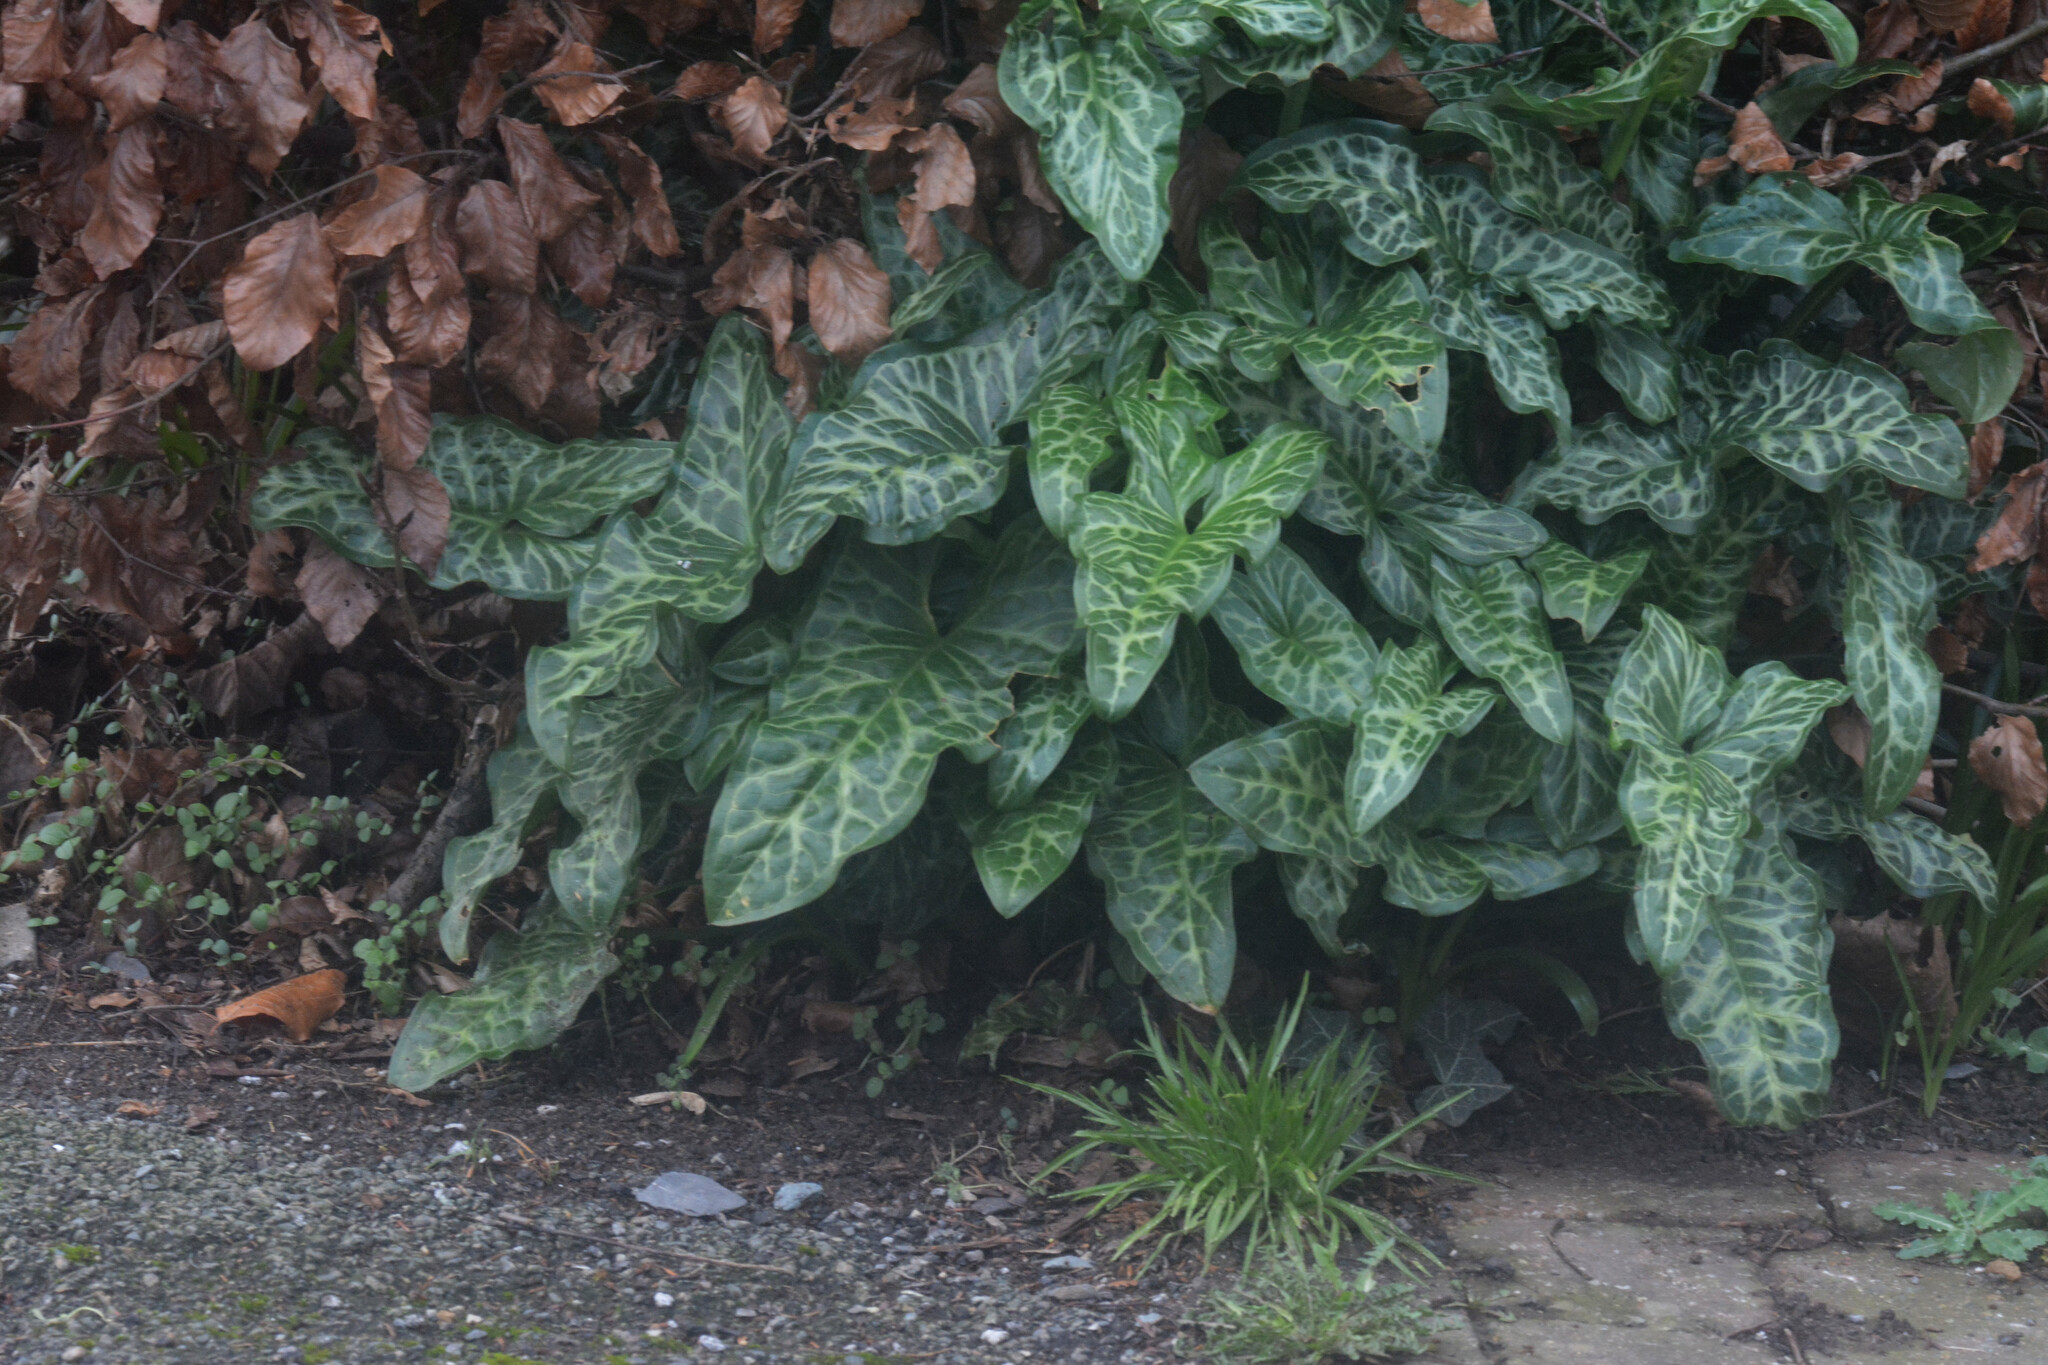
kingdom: Plantae
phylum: Tracheophyta
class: Liliopsida
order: Alismatales
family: Araceae
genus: Arum
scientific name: Arum italicum
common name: Italian lords-and-ladies
